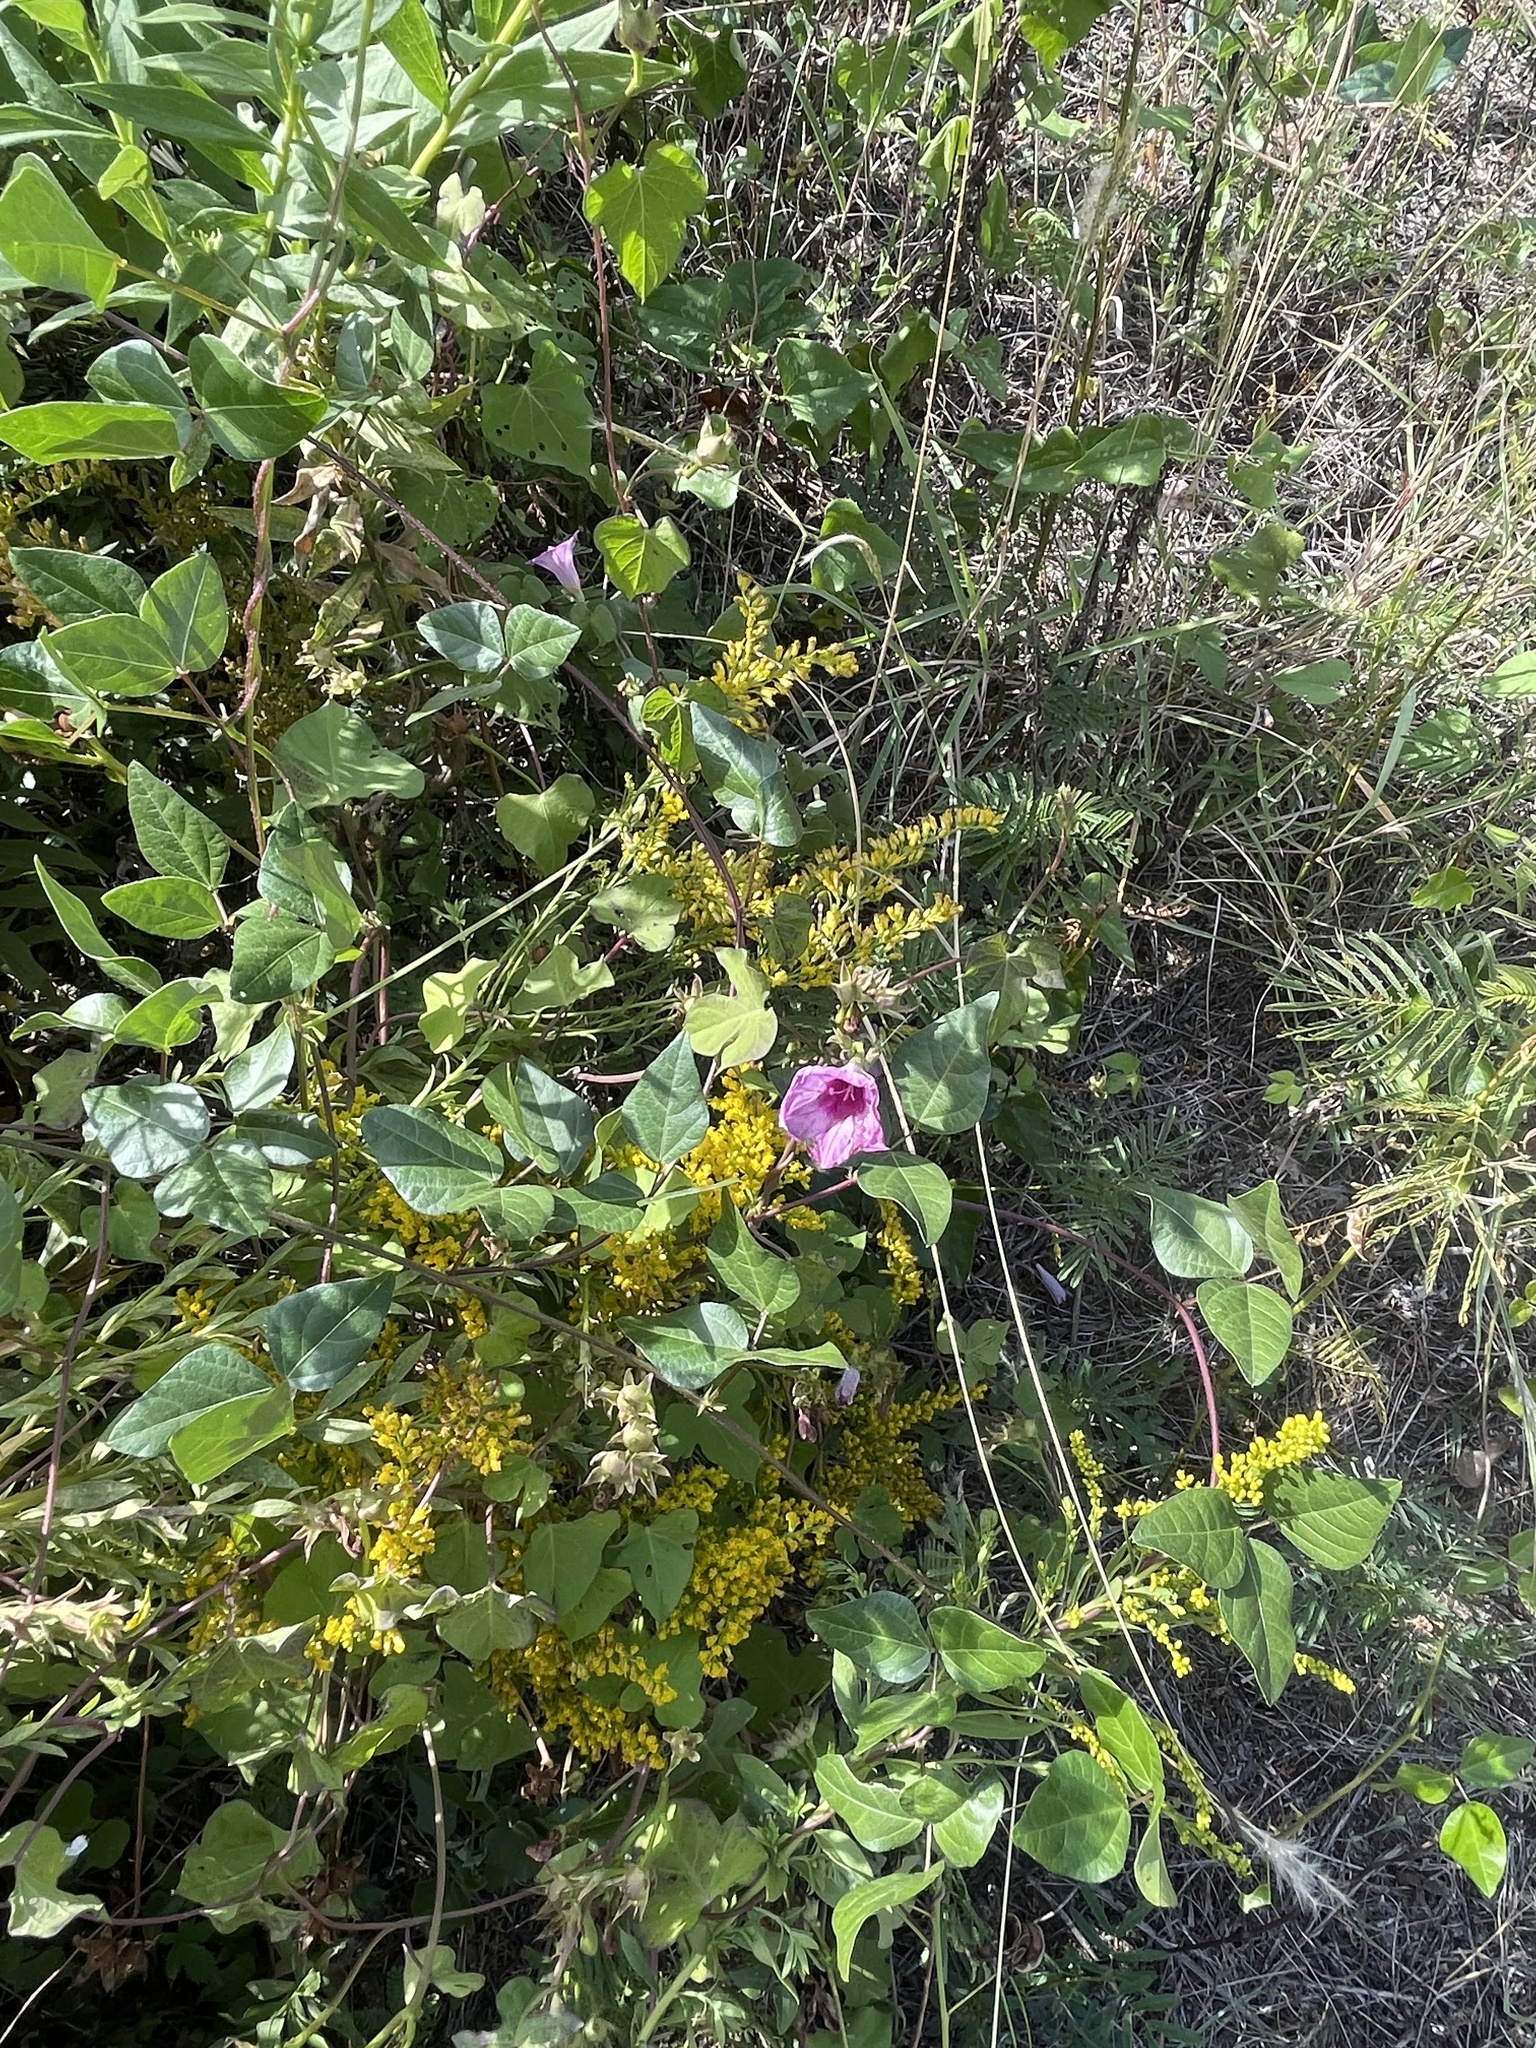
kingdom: Plantae
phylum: Tracheophyta
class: Magnoliopsida
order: Solanales
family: Convolvulaceae
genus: Ipomoea
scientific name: Ipomoea cordatotriloba
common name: Cotton morning glory
